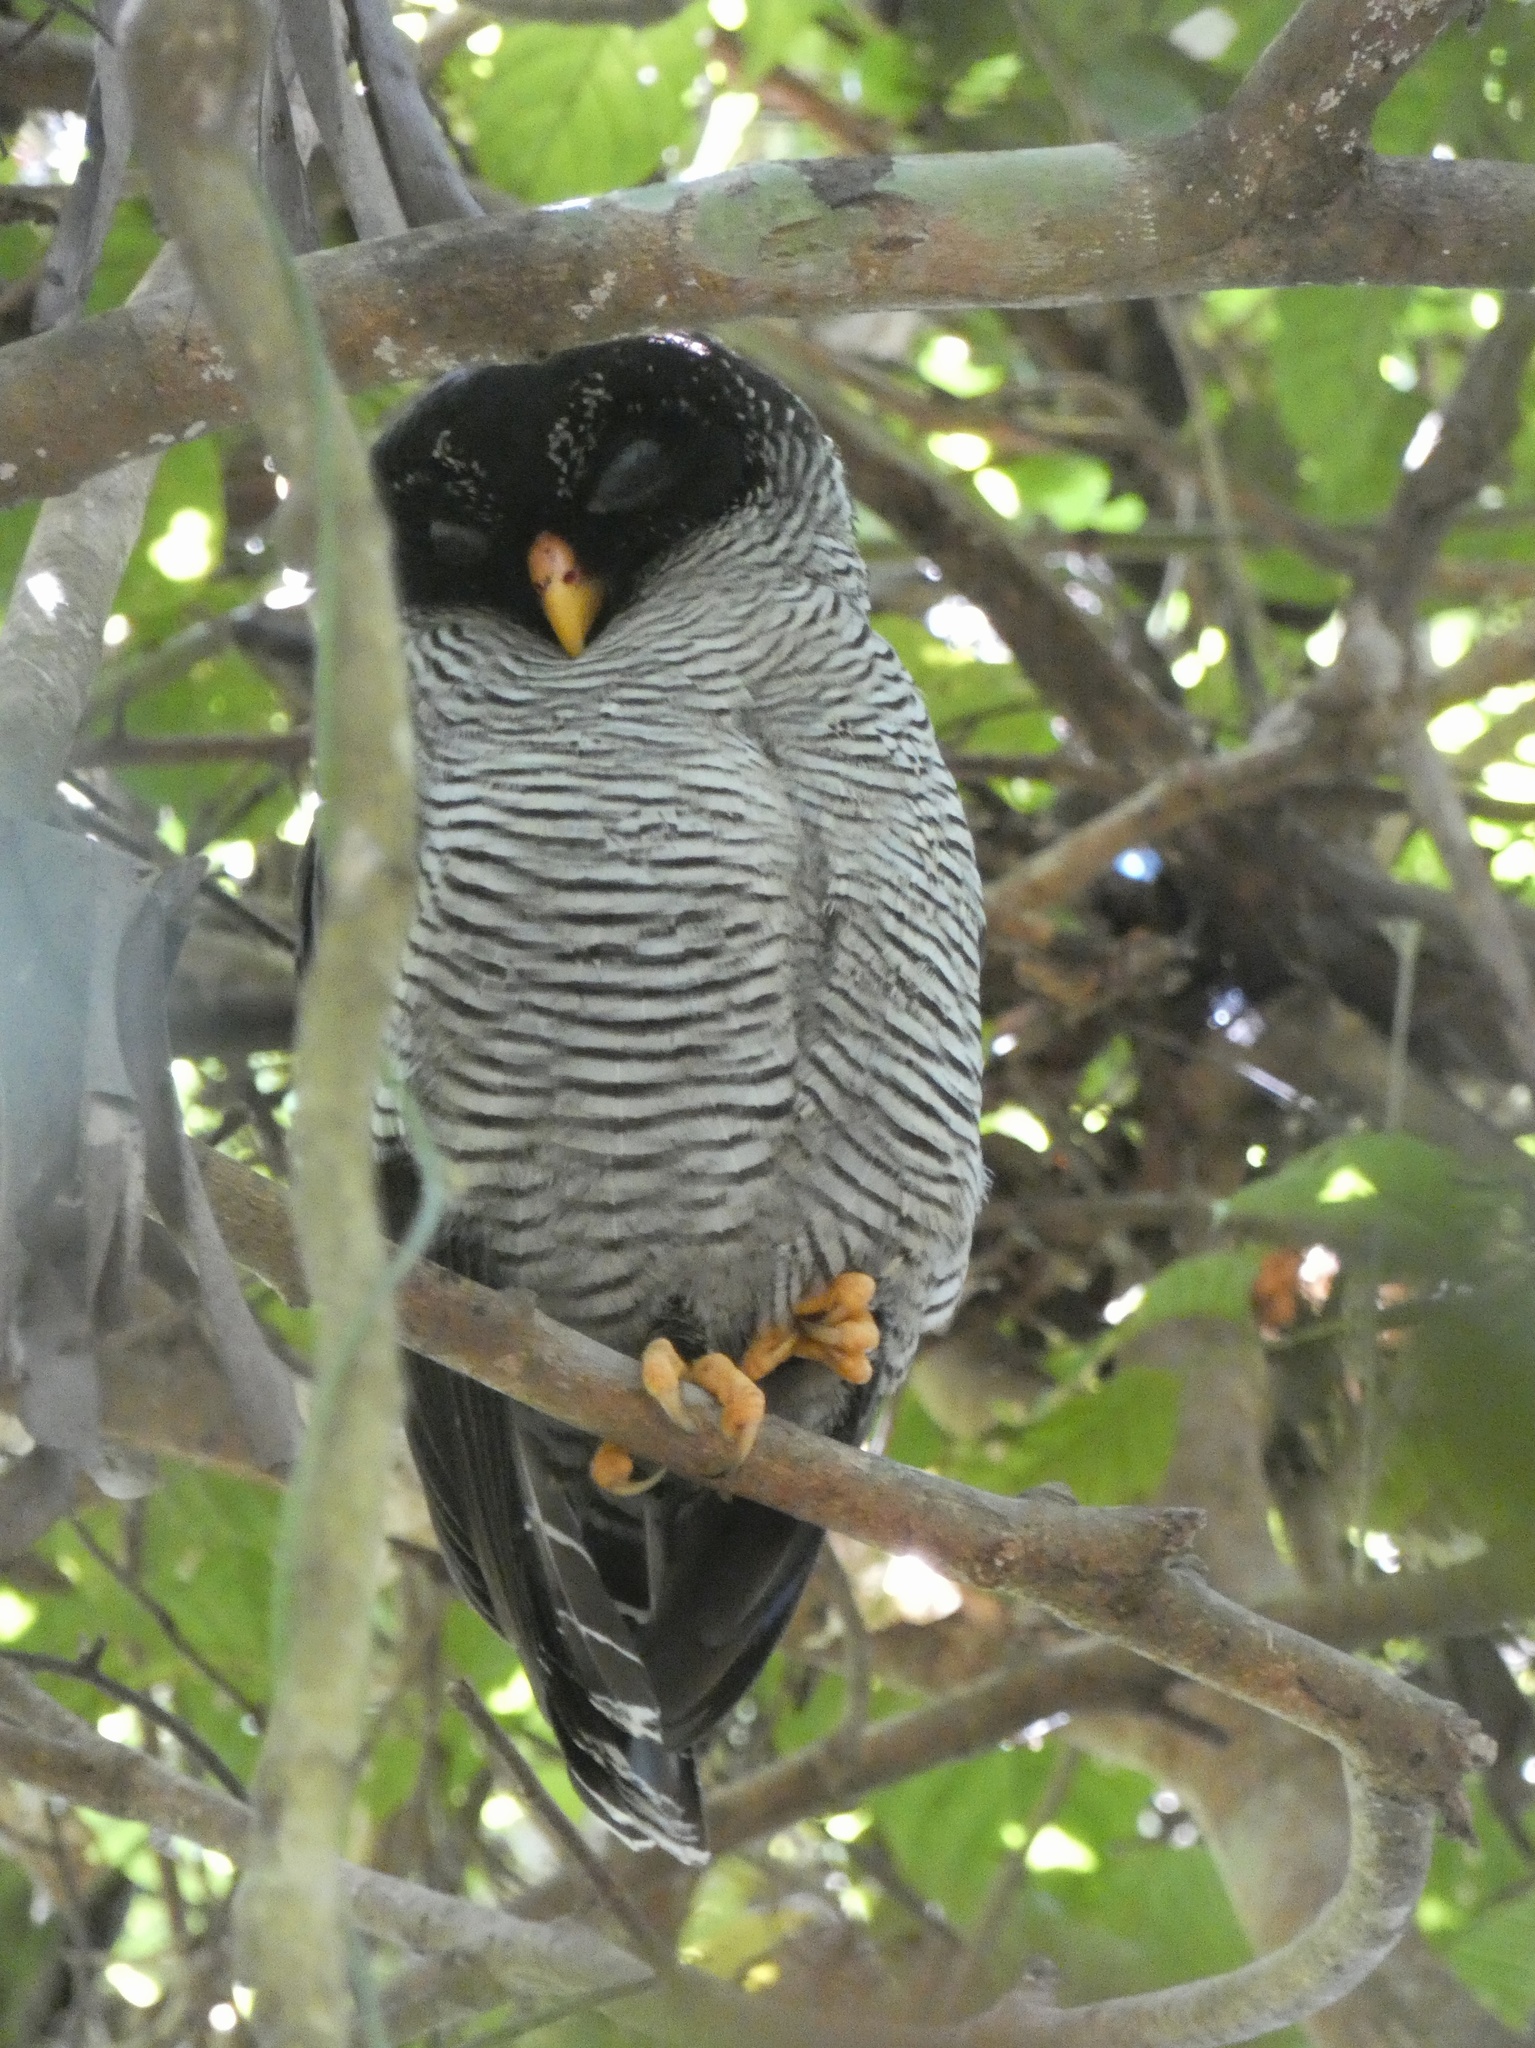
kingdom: Animalia
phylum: Chordata
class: Aves
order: Strigiformes
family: Strigidae
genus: Strix
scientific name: Strix nigrolineata
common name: Black-and-white owl
